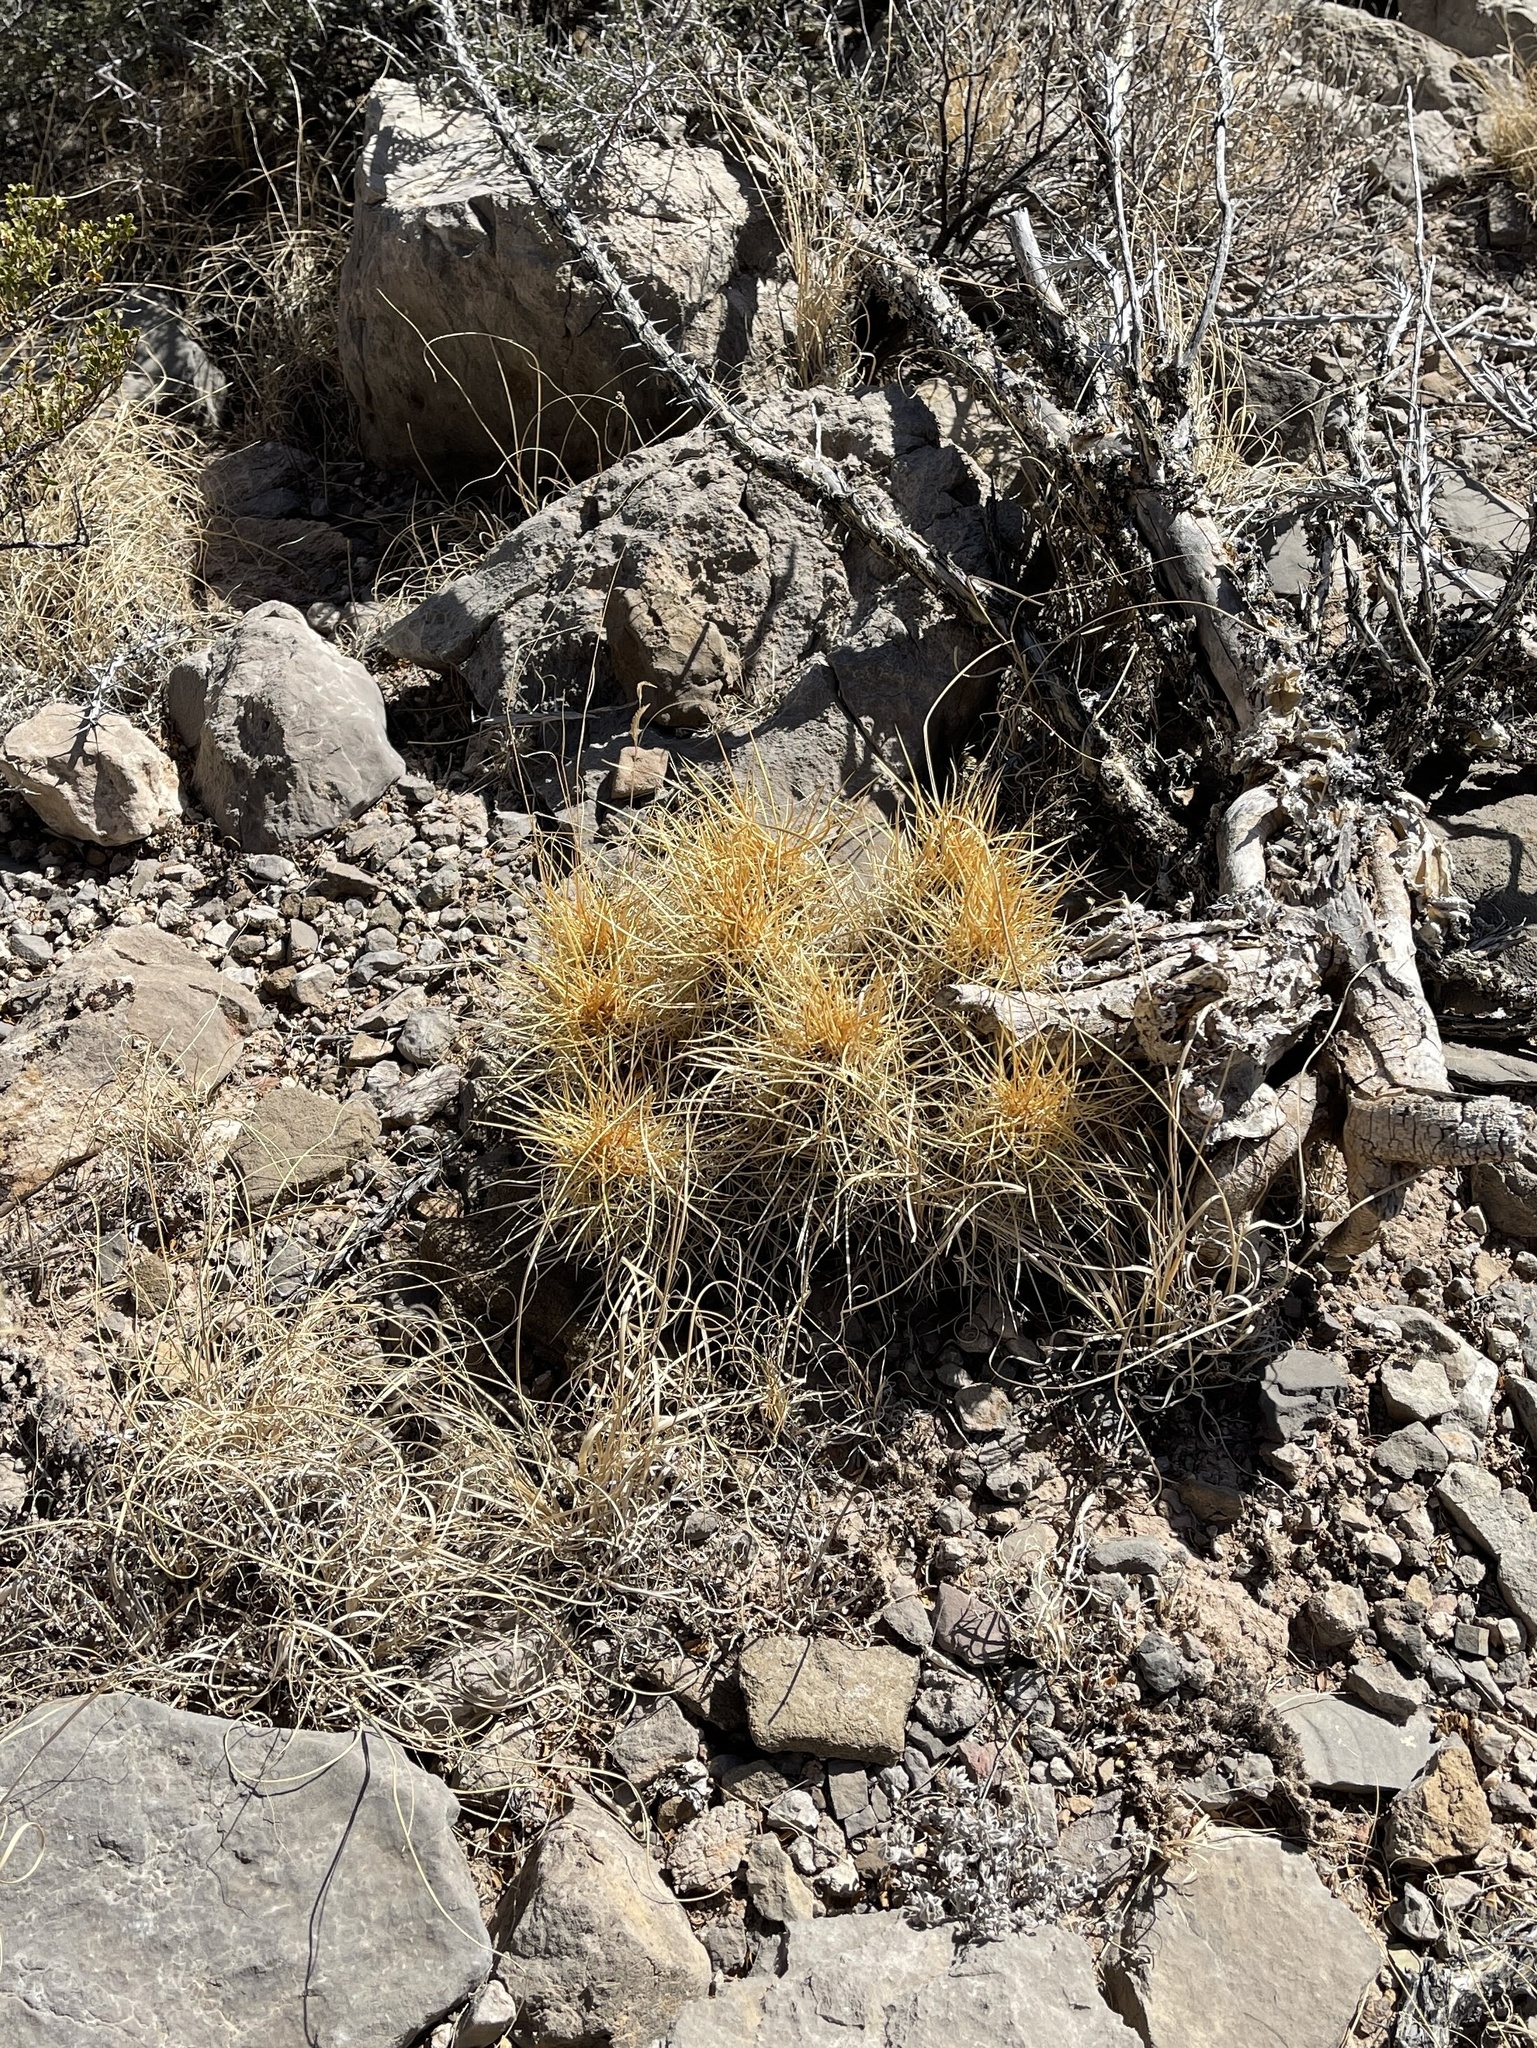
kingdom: Plantae
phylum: Tracheophyta
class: Magnoliopsida
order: Caryophyllales
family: Cactaceae
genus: Echinocereus
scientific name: Echinocereus stramineus
